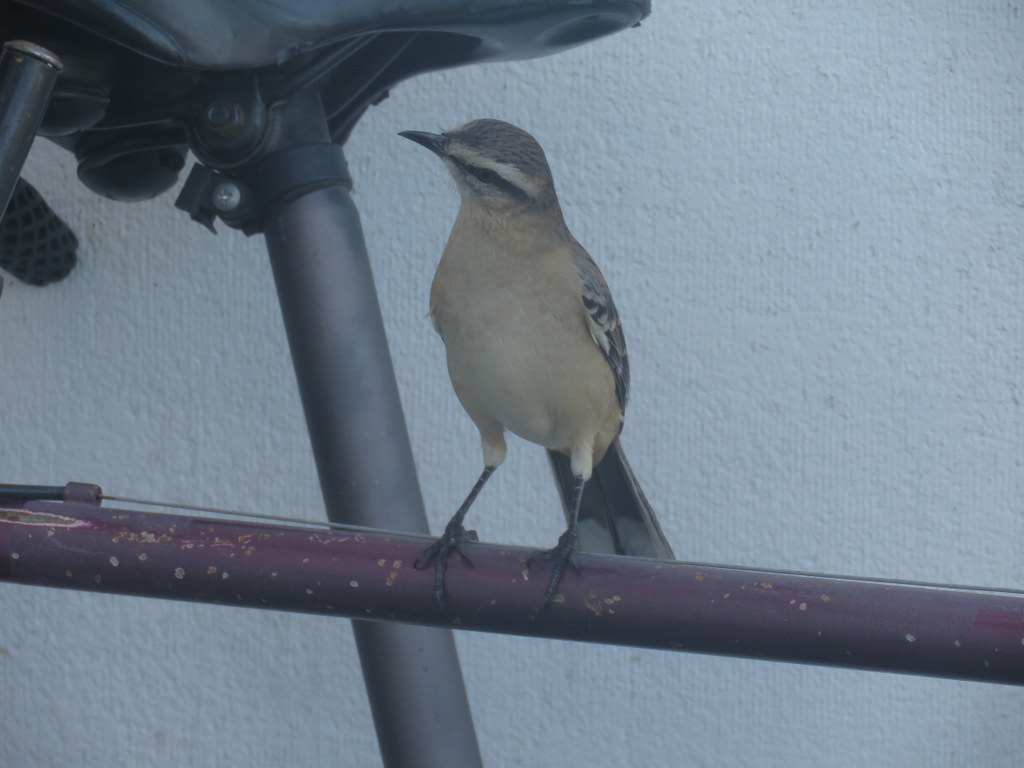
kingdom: Animalia
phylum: Chordata
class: Aves
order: Passeriformes
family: Mimidae
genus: Mimus
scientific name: Mimus saturninus
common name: Chalk-browed mockingbird
